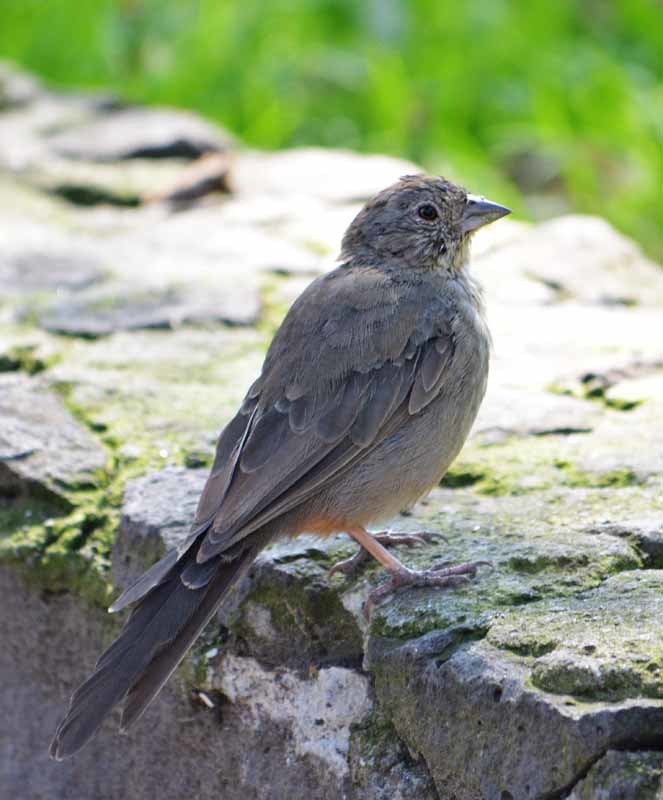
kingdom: Animalia
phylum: Chordata
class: Aves
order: Passeriformes
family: Passerellidae
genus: Melozone
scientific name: Melozone fusca
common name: Canyon towhee
